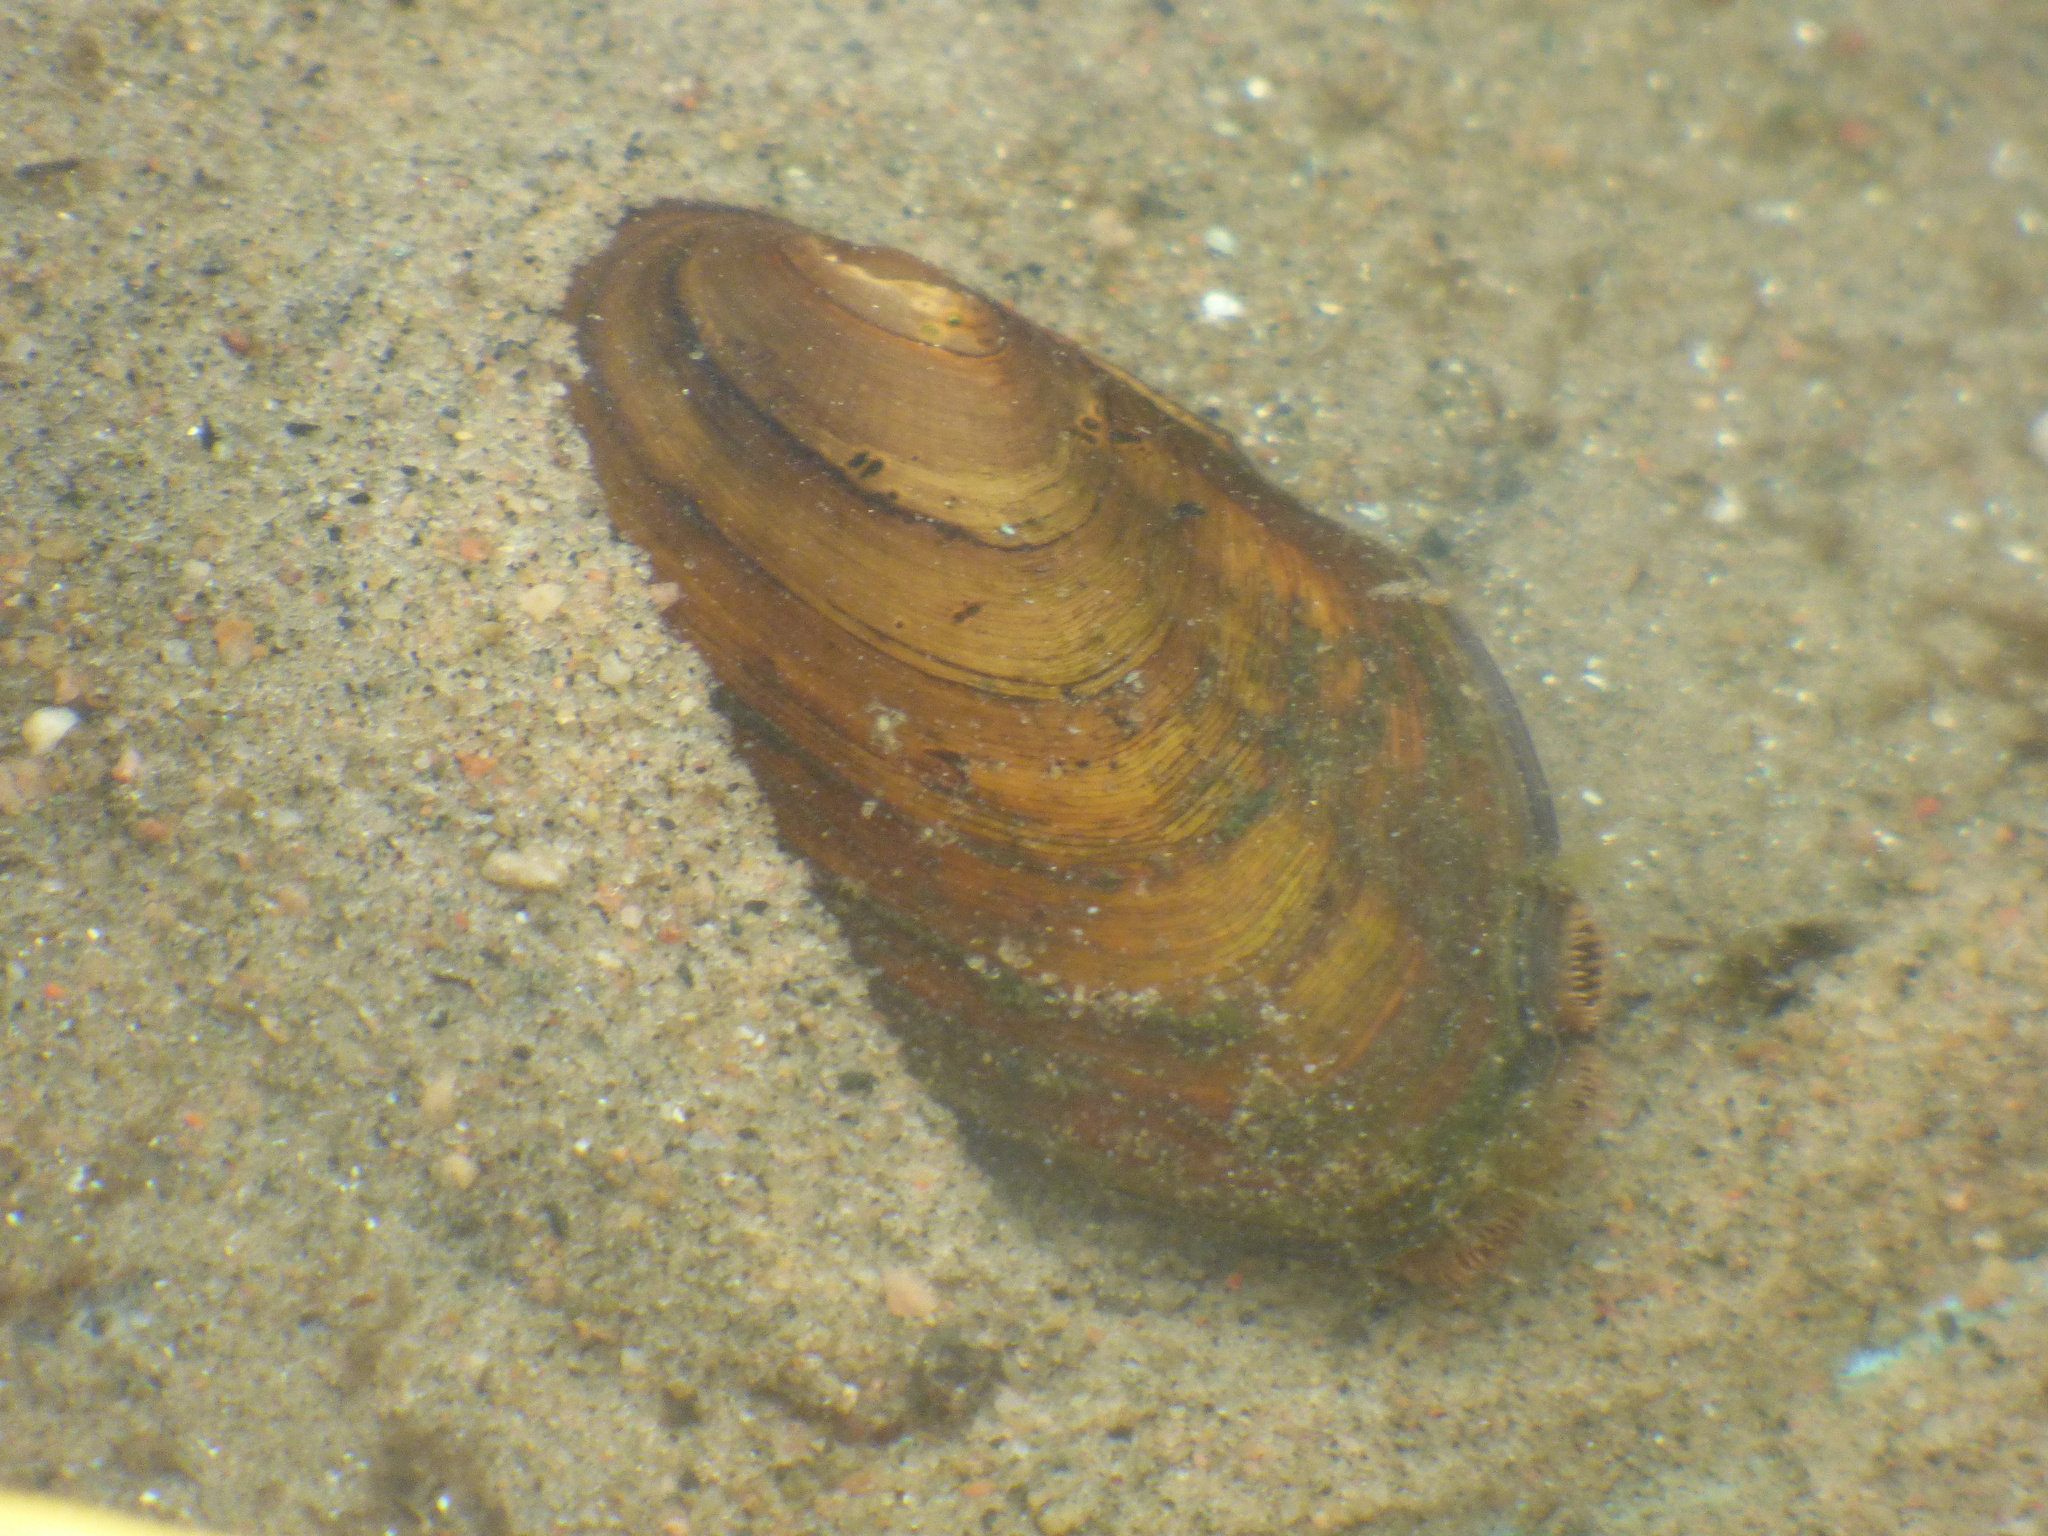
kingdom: Animalia
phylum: Mollusca
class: Bivalvia
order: Unionida
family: Unionidae
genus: Elliptio
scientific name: Elliptio complanata
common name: Eastern elliptio
